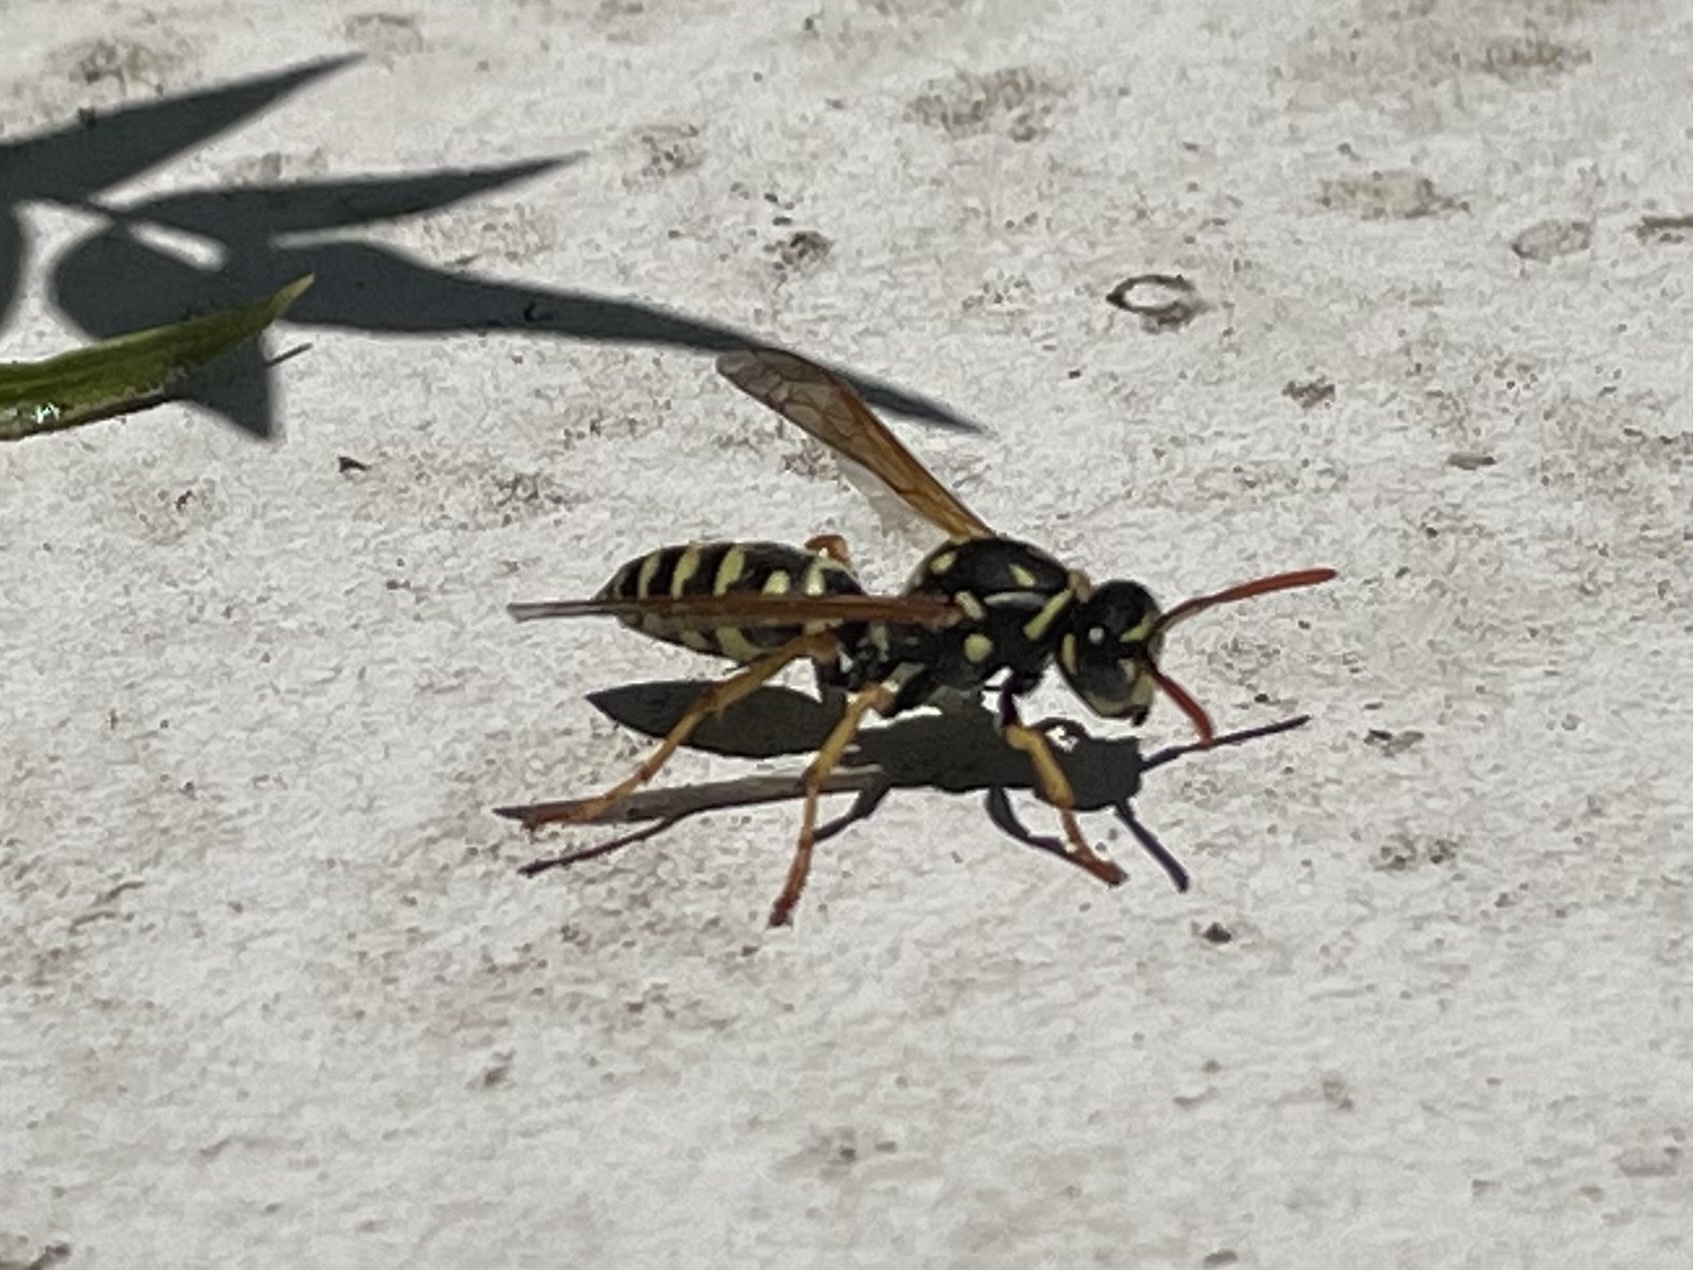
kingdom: Animalia
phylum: Arthropoda
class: Insecta
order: Hymenoptera
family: Eumenidae
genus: Polistes
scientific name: Polistes dominula
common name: Paper wasp
